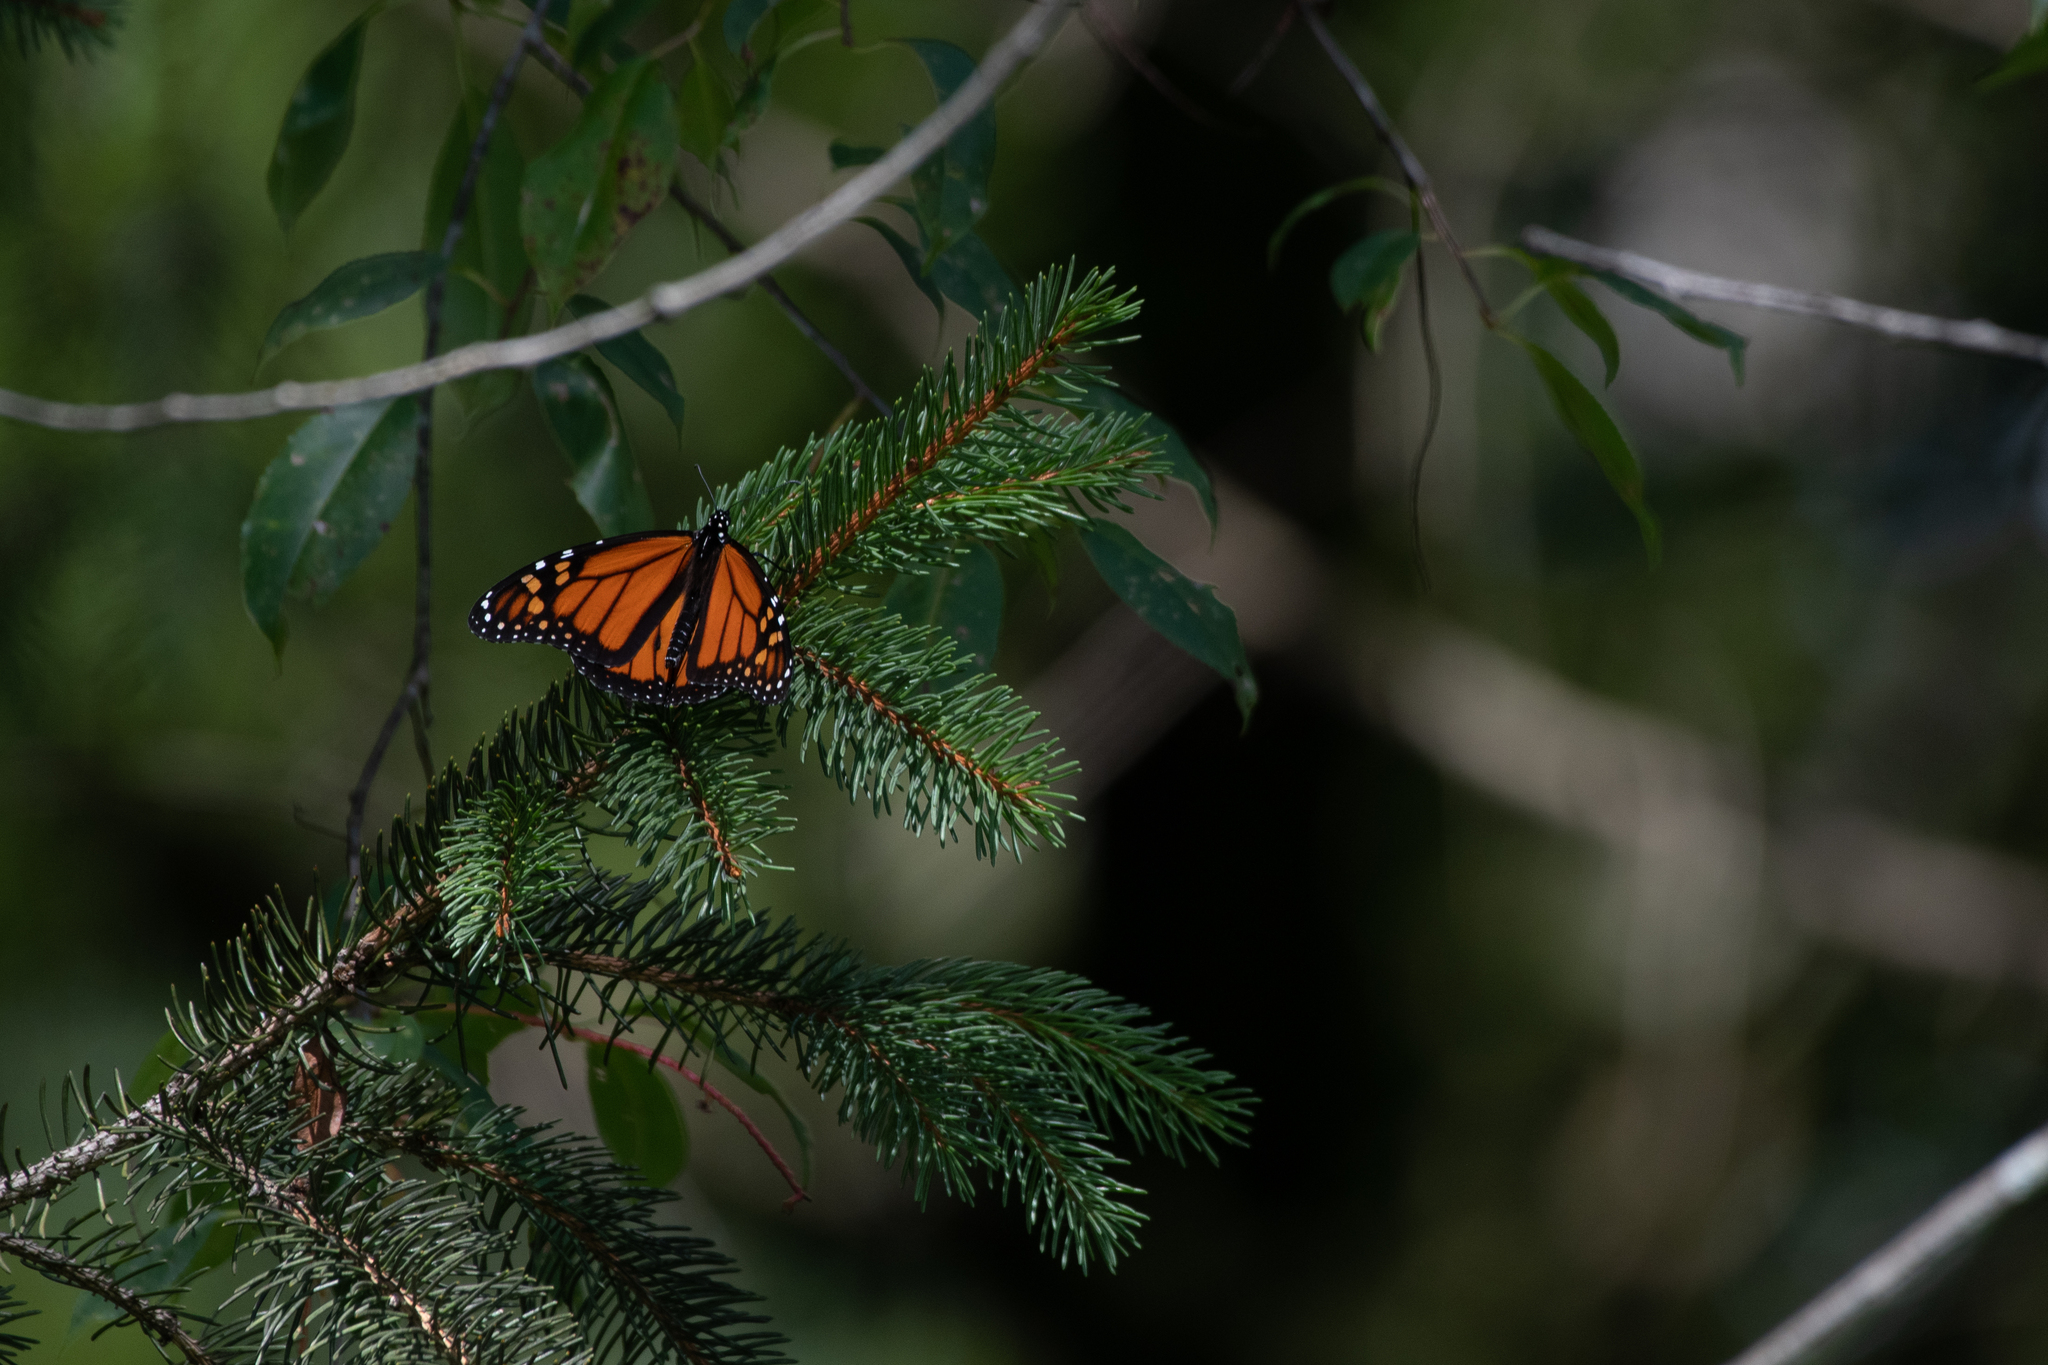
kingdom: Animalia
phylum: Arthropoda
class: Insecta
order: Lepidoptera
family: Nymphalidae
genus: Danaus
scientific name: Danaus plexippus
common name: Monarch
